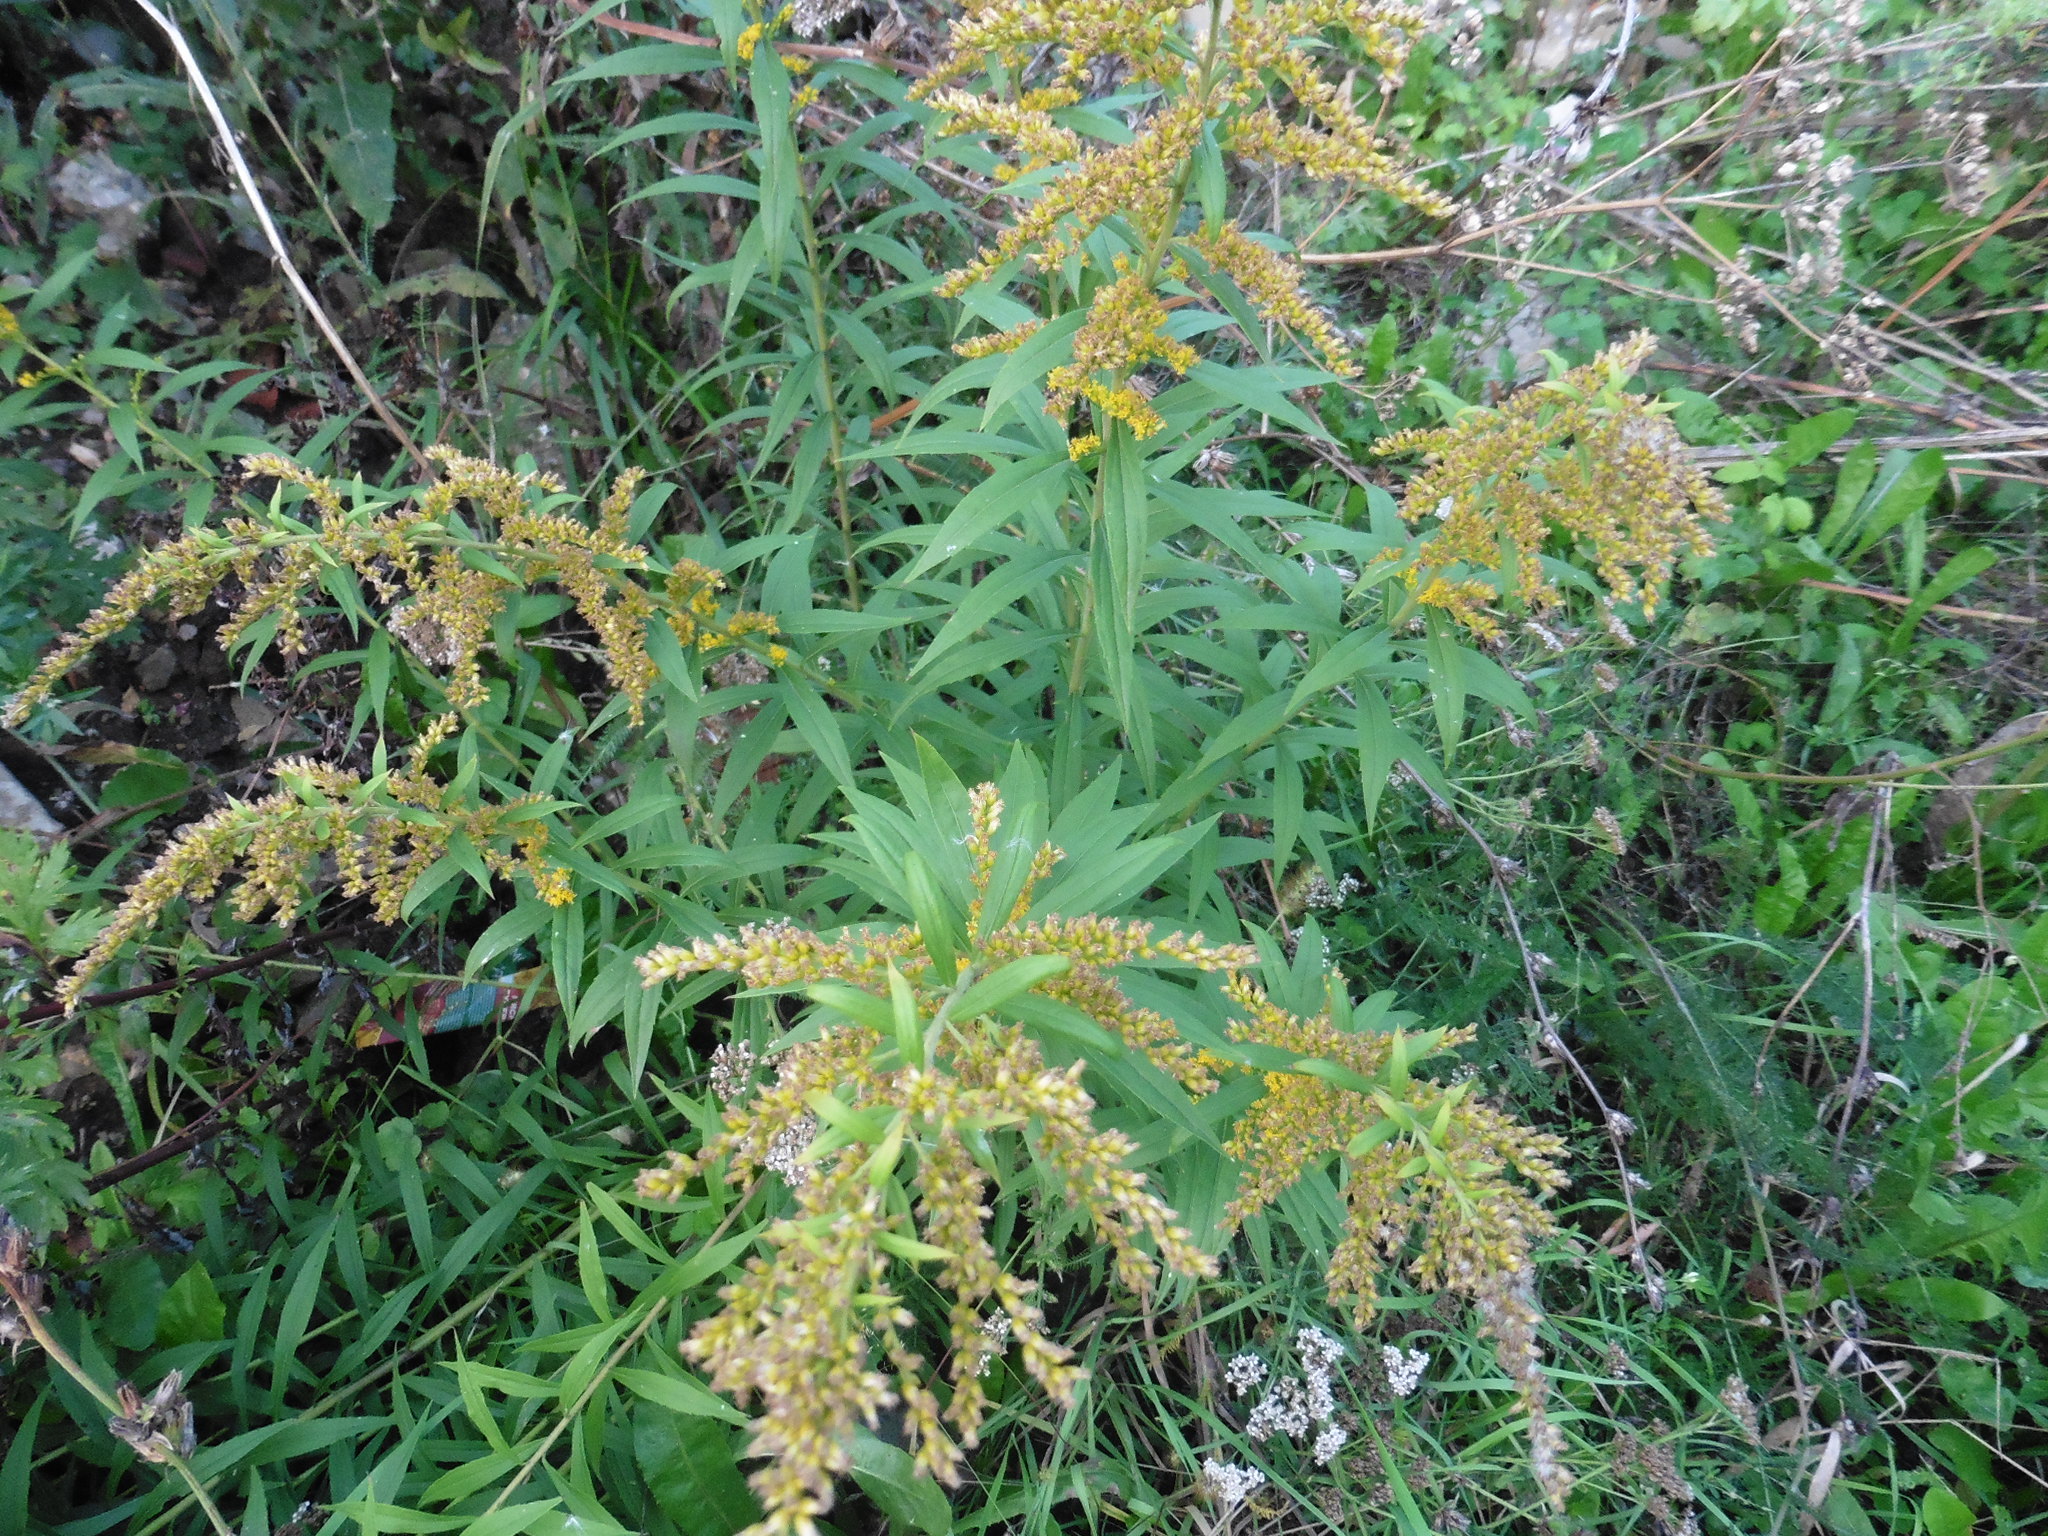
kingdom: Plantae
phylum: Tracheophyta
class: Magnoliopsida
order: Asterales
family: Asteraceae
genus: Solidago
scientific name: Solidago canadensis
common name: Canada goldenrod
